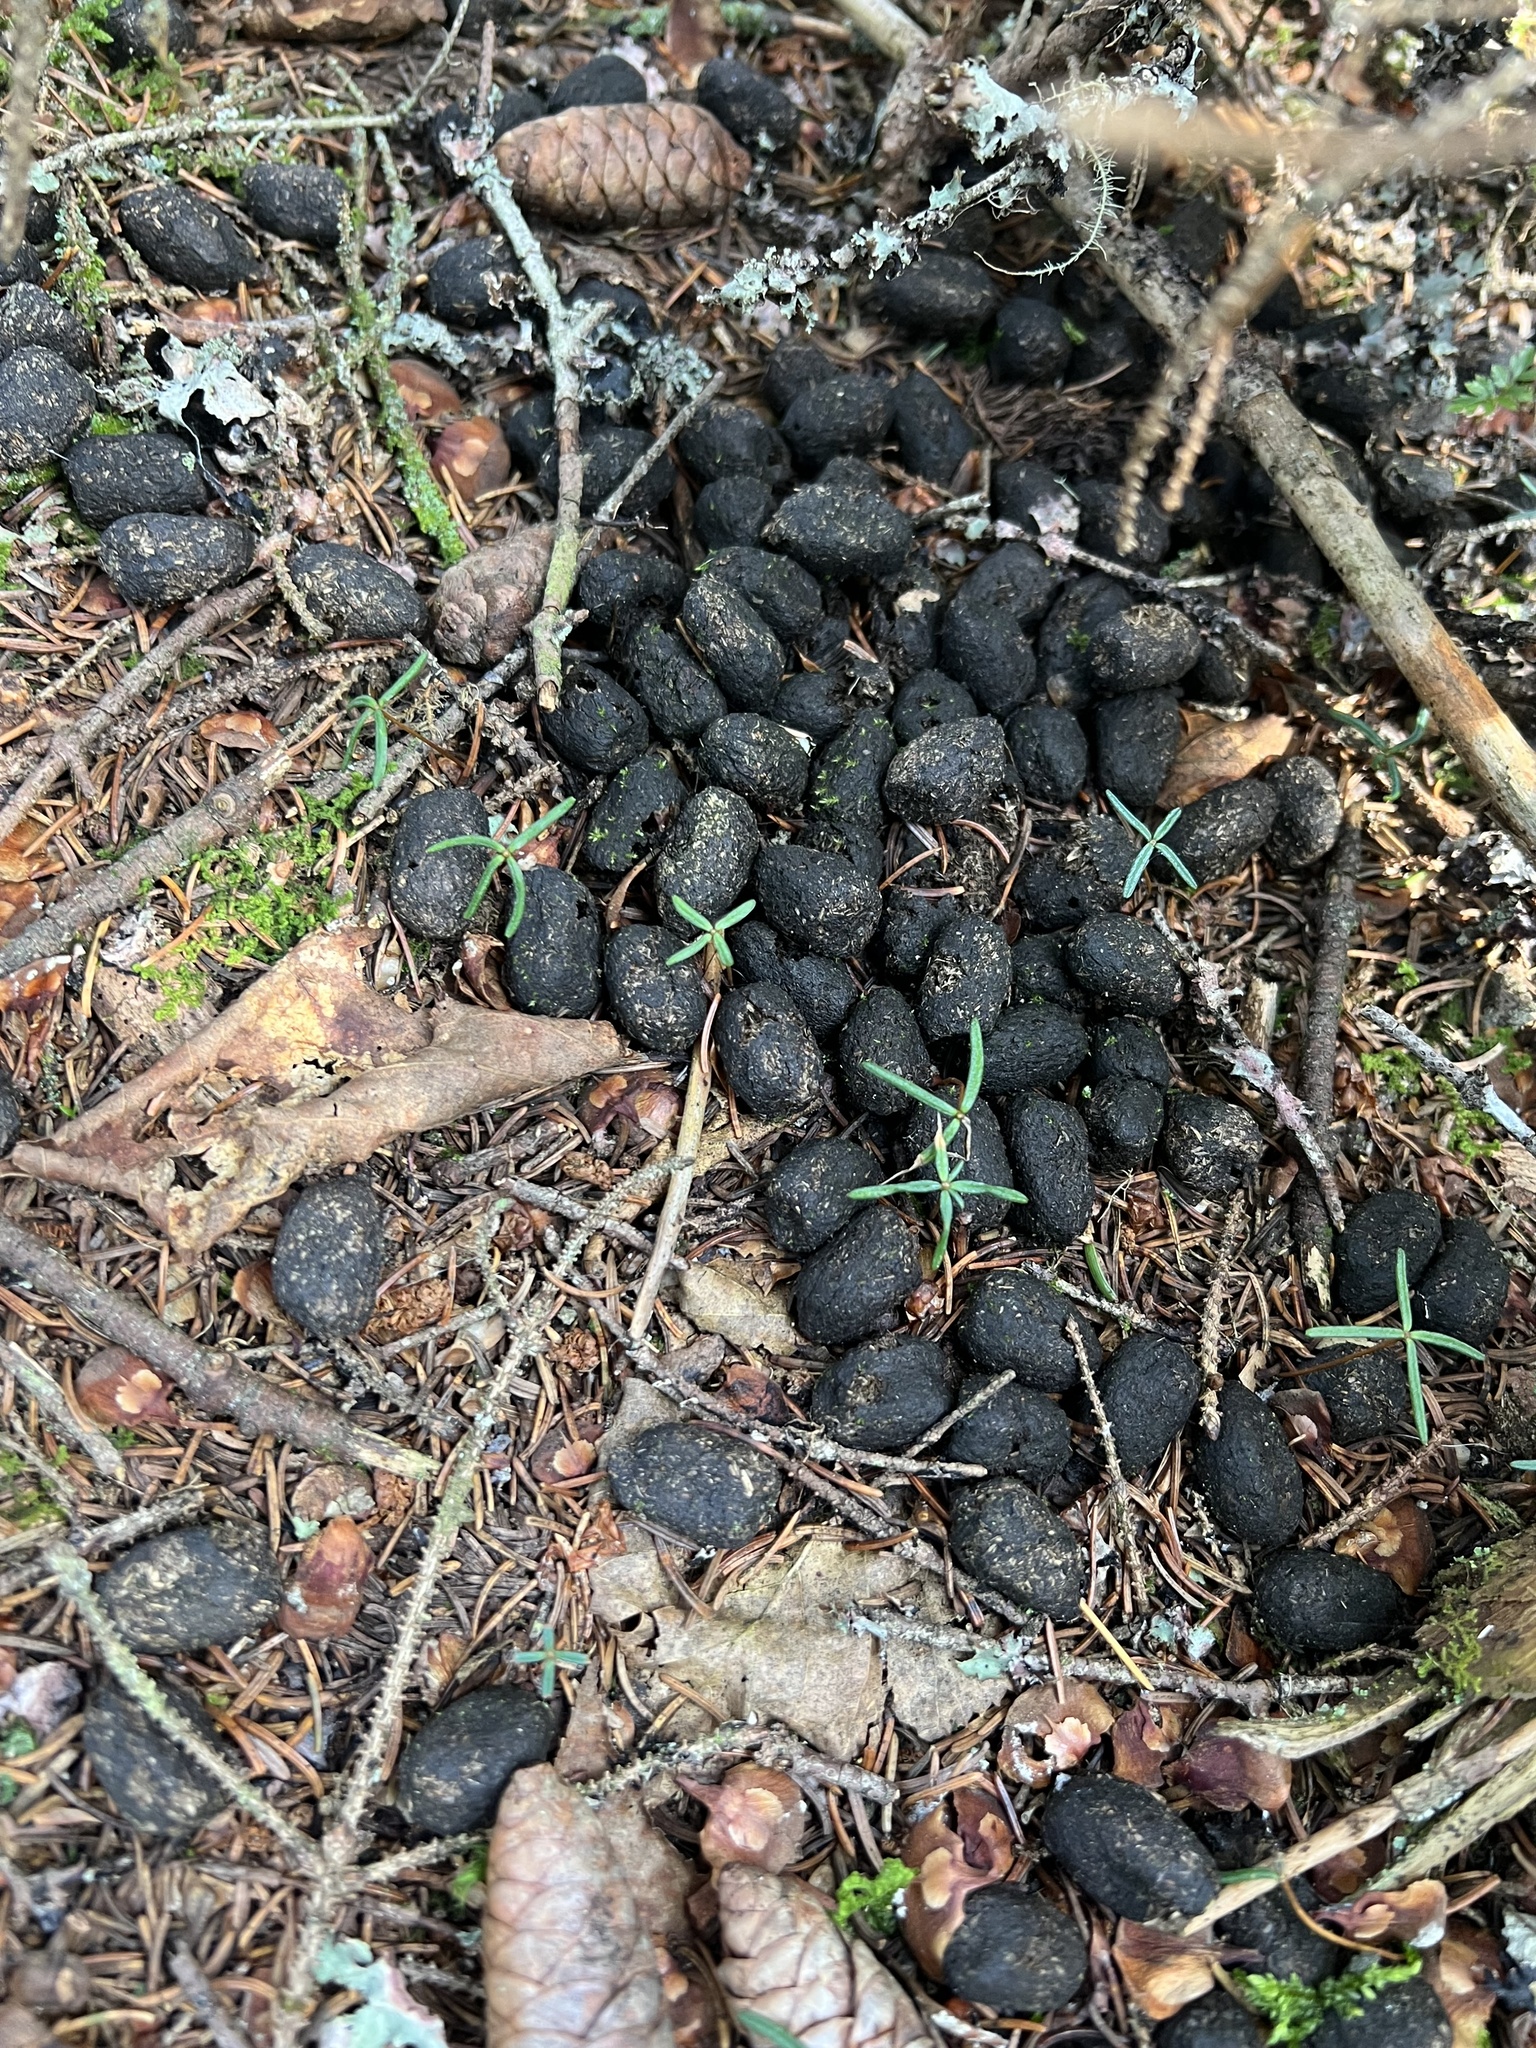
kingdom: Animalia
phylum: Chordata
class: Mammalia
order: Artiodactyla
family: Cervidae
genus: Odocoileus
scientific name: Odocoileus virginianus
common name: White-tailed deer
